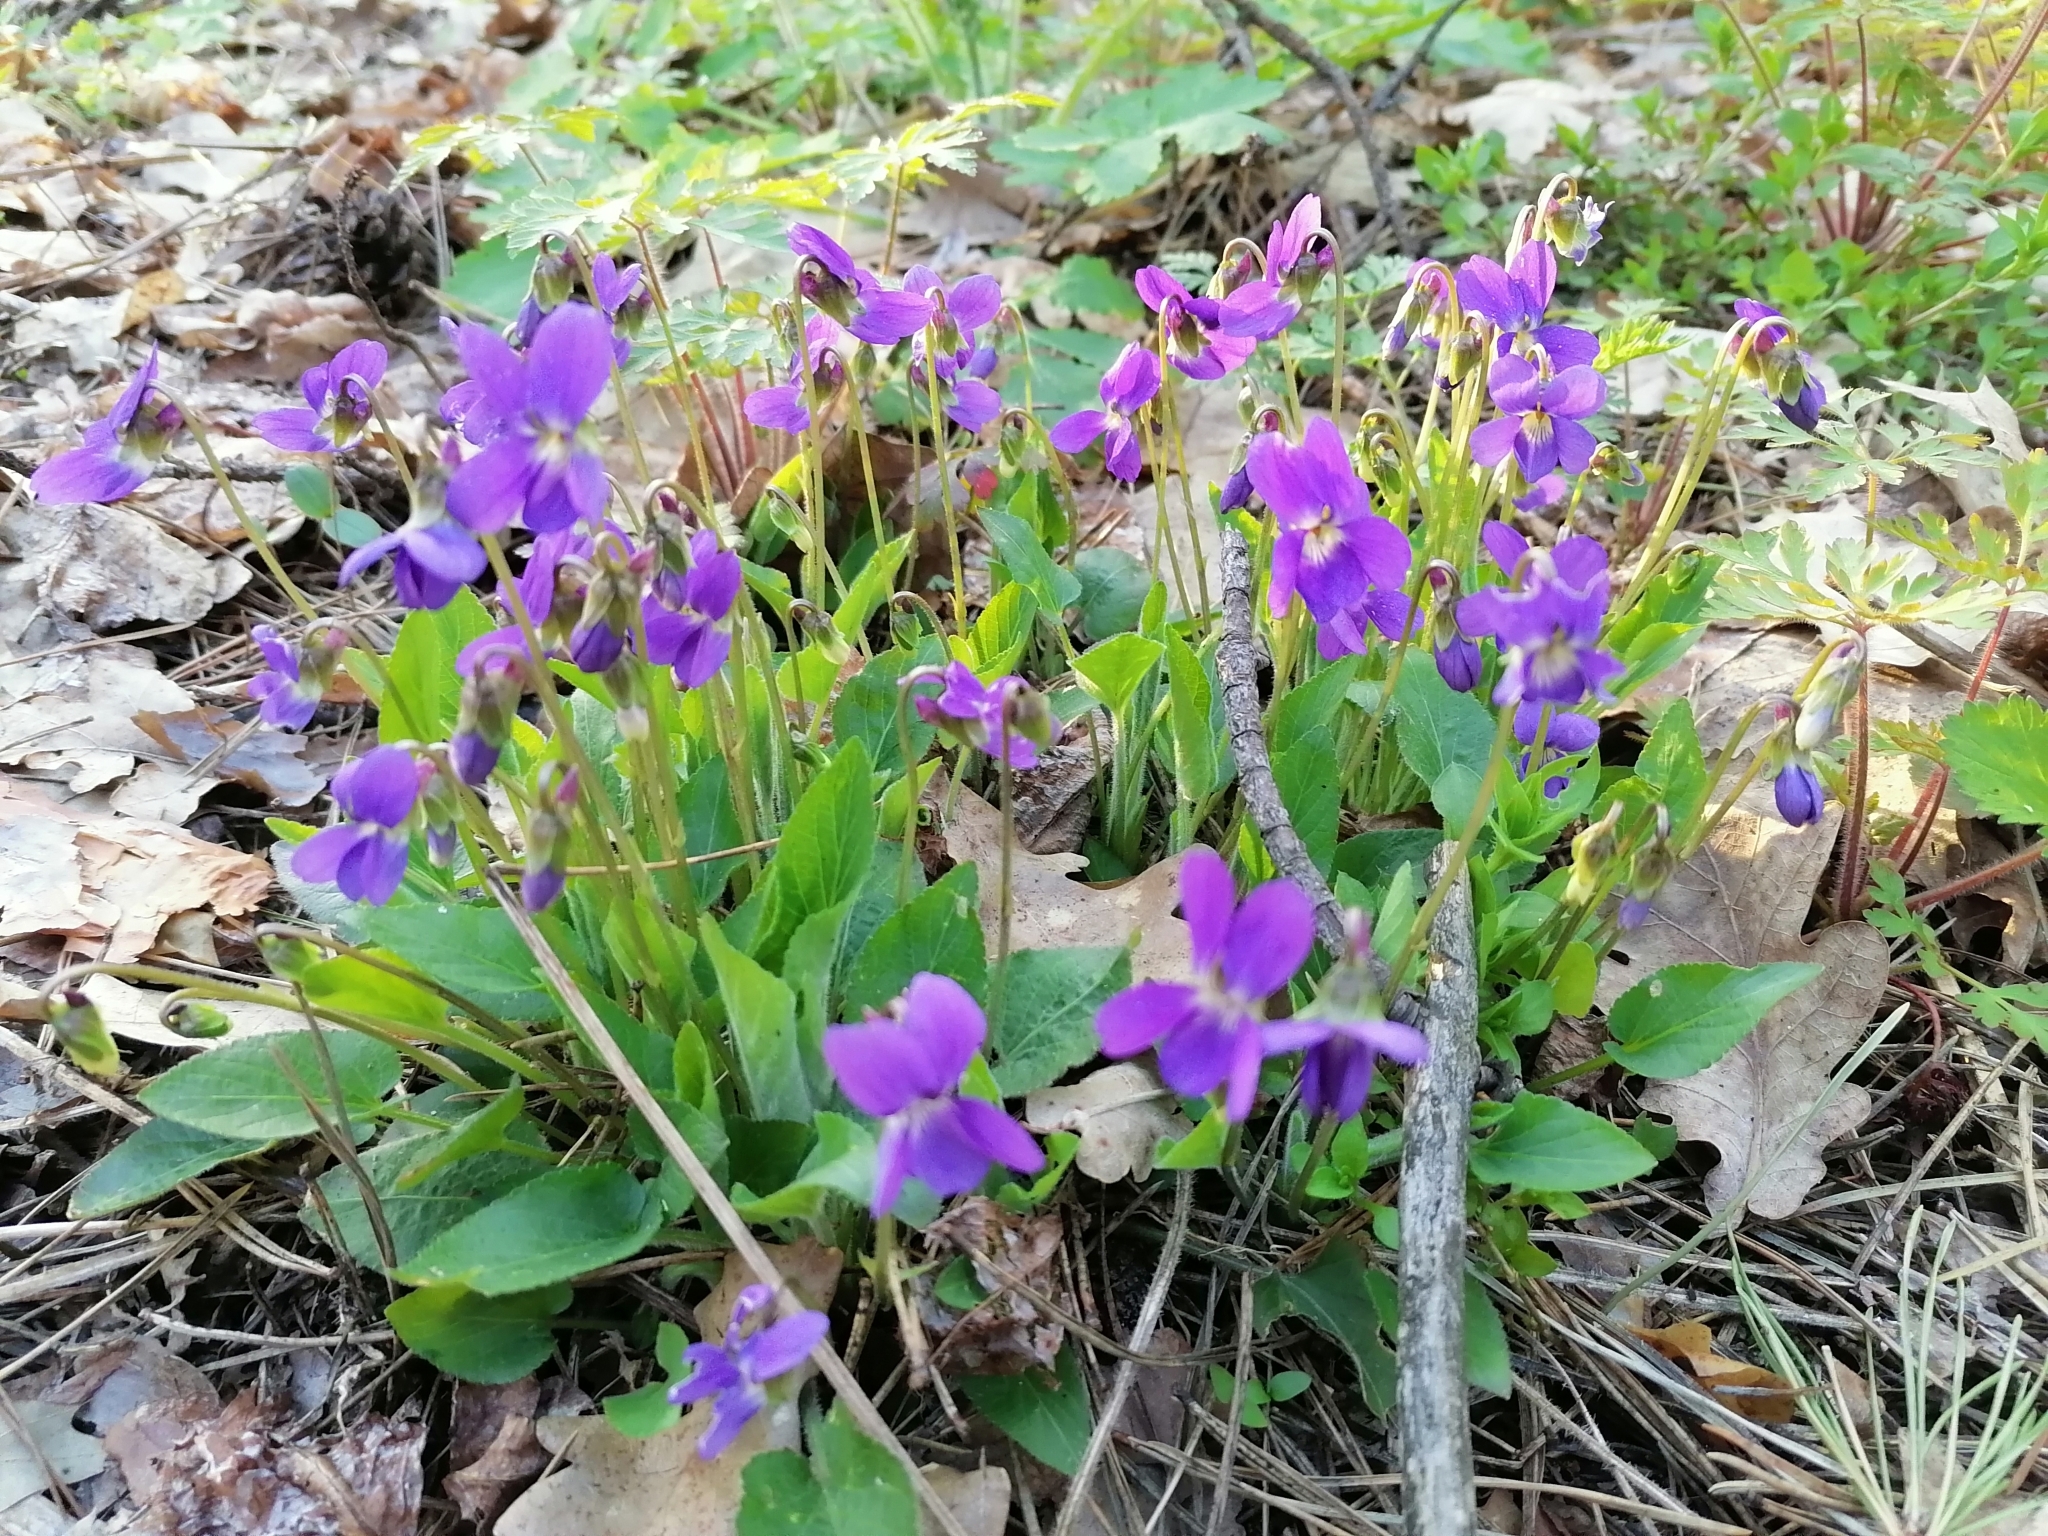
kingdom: Plantae
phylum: Tracheophyta
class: Magnoliopsida
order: Malpighiales
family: Violaceae
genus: Viola
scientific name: Viola hirta
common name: Hairy violet
